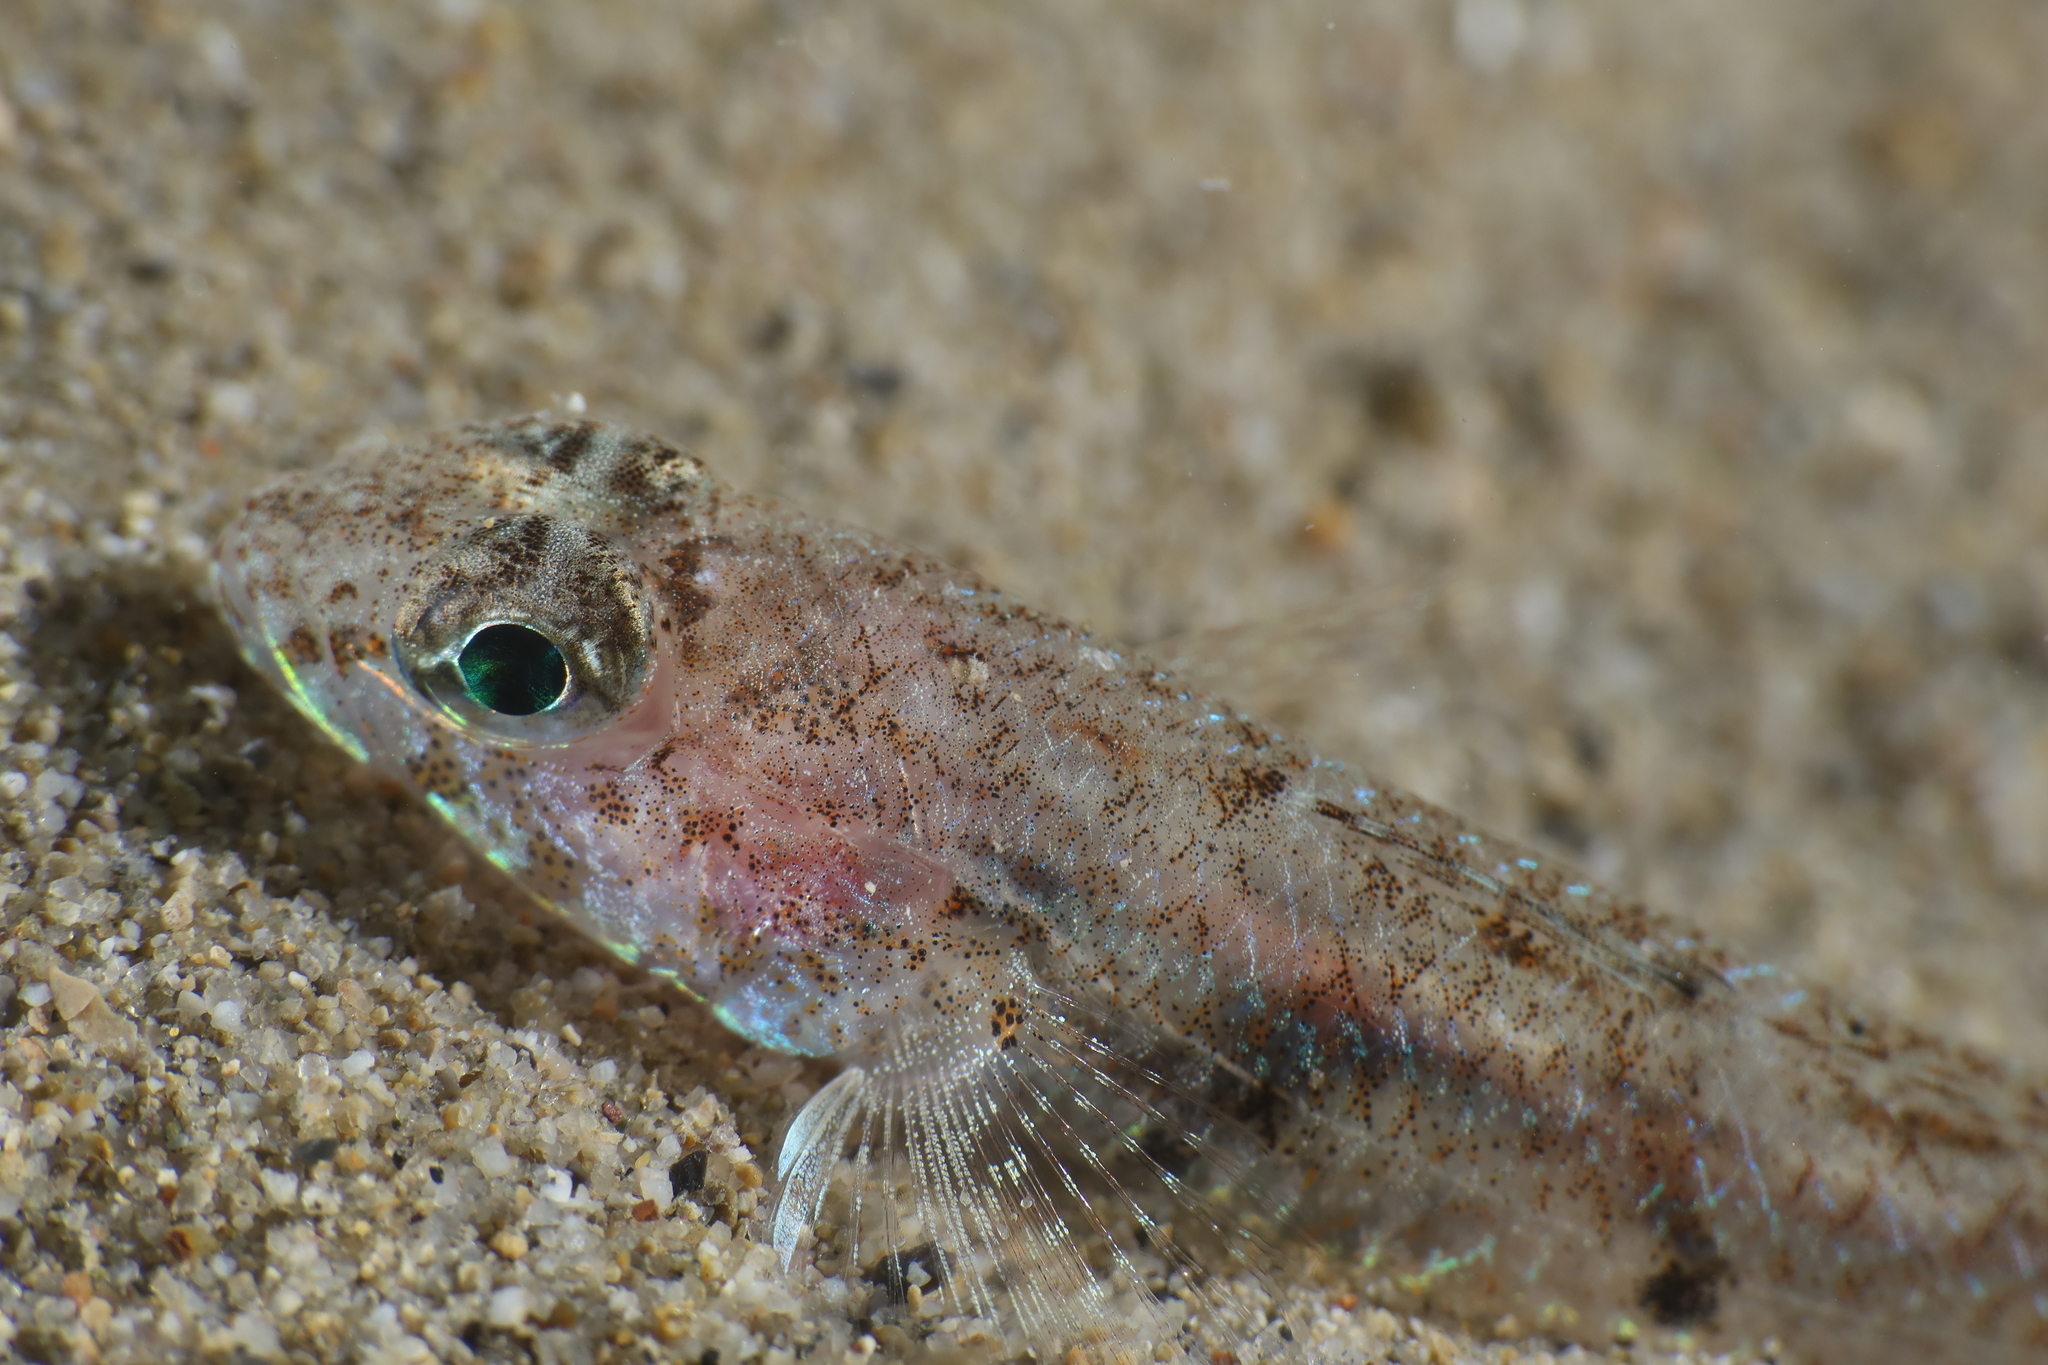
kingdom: Animalia
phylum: Chordata
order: Perciformes
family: Gobiidae
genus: Deltentosteus
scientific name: Deltentosteus quadrimaculatus
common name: Four-spotted goby
